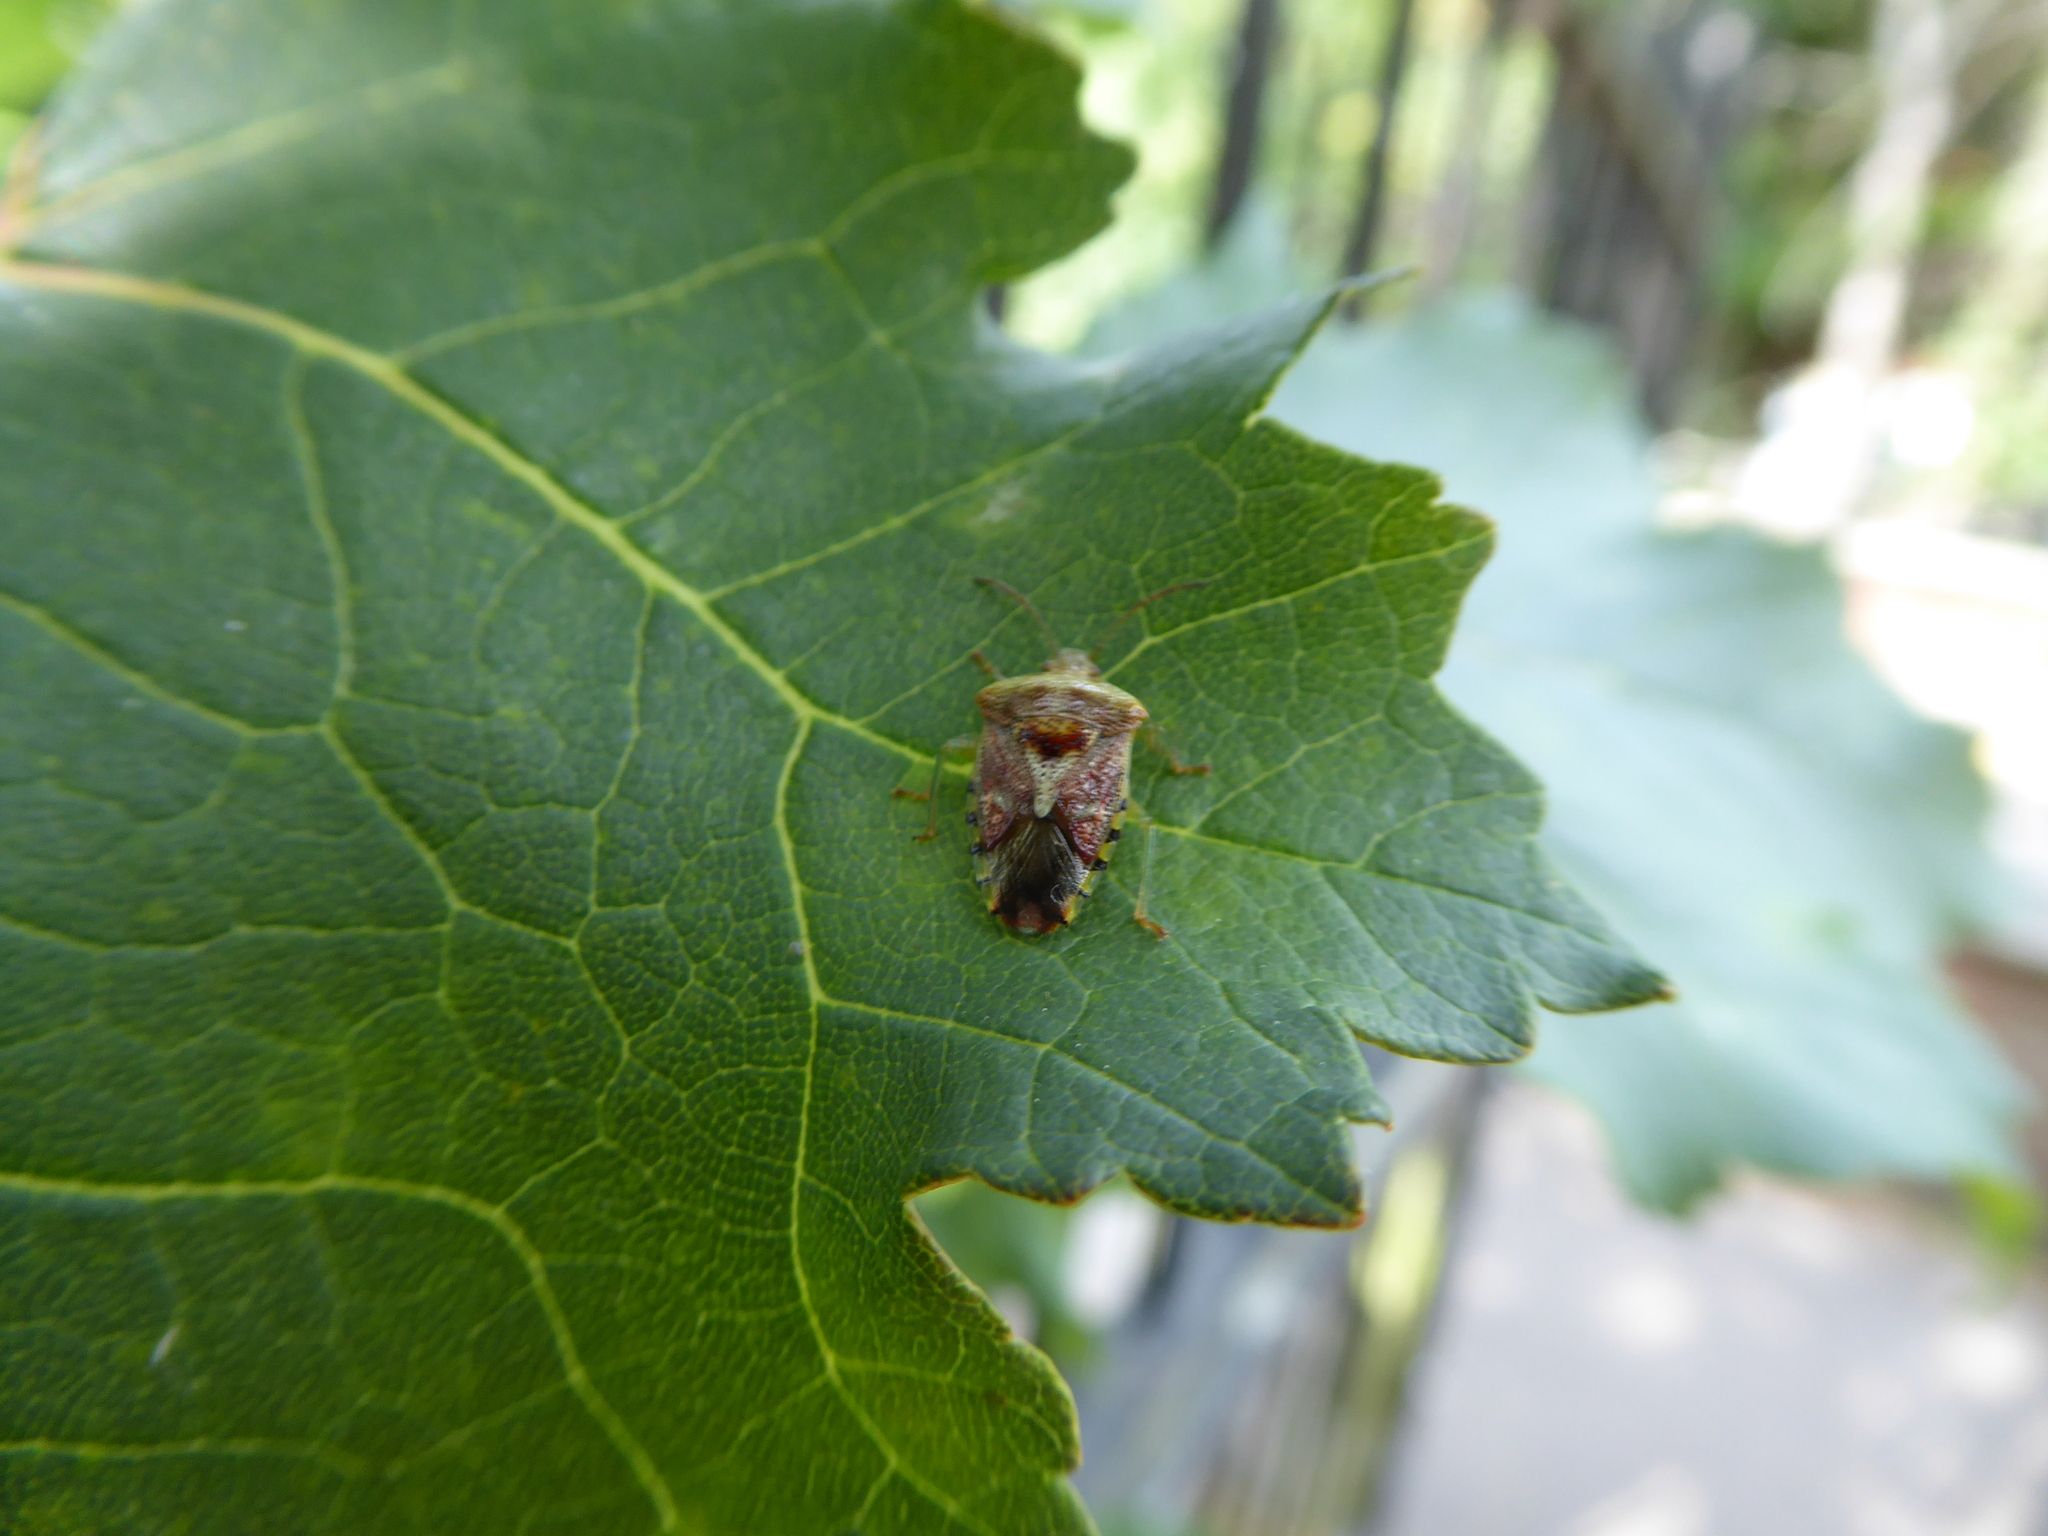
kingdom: Animalia
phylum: Arthropoda
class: Insecta
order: Hemiptera
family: Acanthosomatidae
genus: Elasmucha
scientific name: Elasmucha grisea
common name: Parent bug
